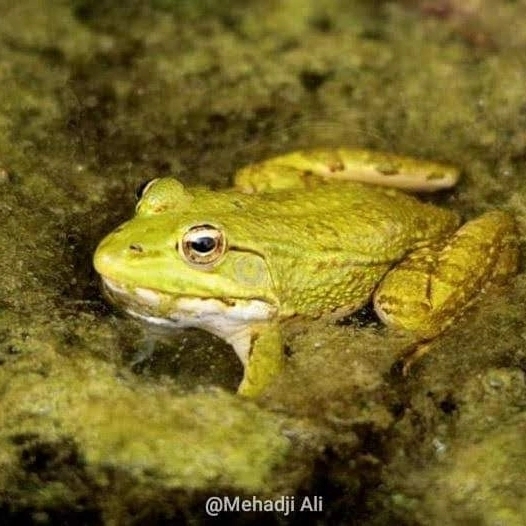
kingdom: Animalia
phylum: Chordata
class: Amphibia
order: Anura
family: Ranidae
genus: Pelophylax
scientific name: Pelophylax saharicus
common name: Sahara frog
